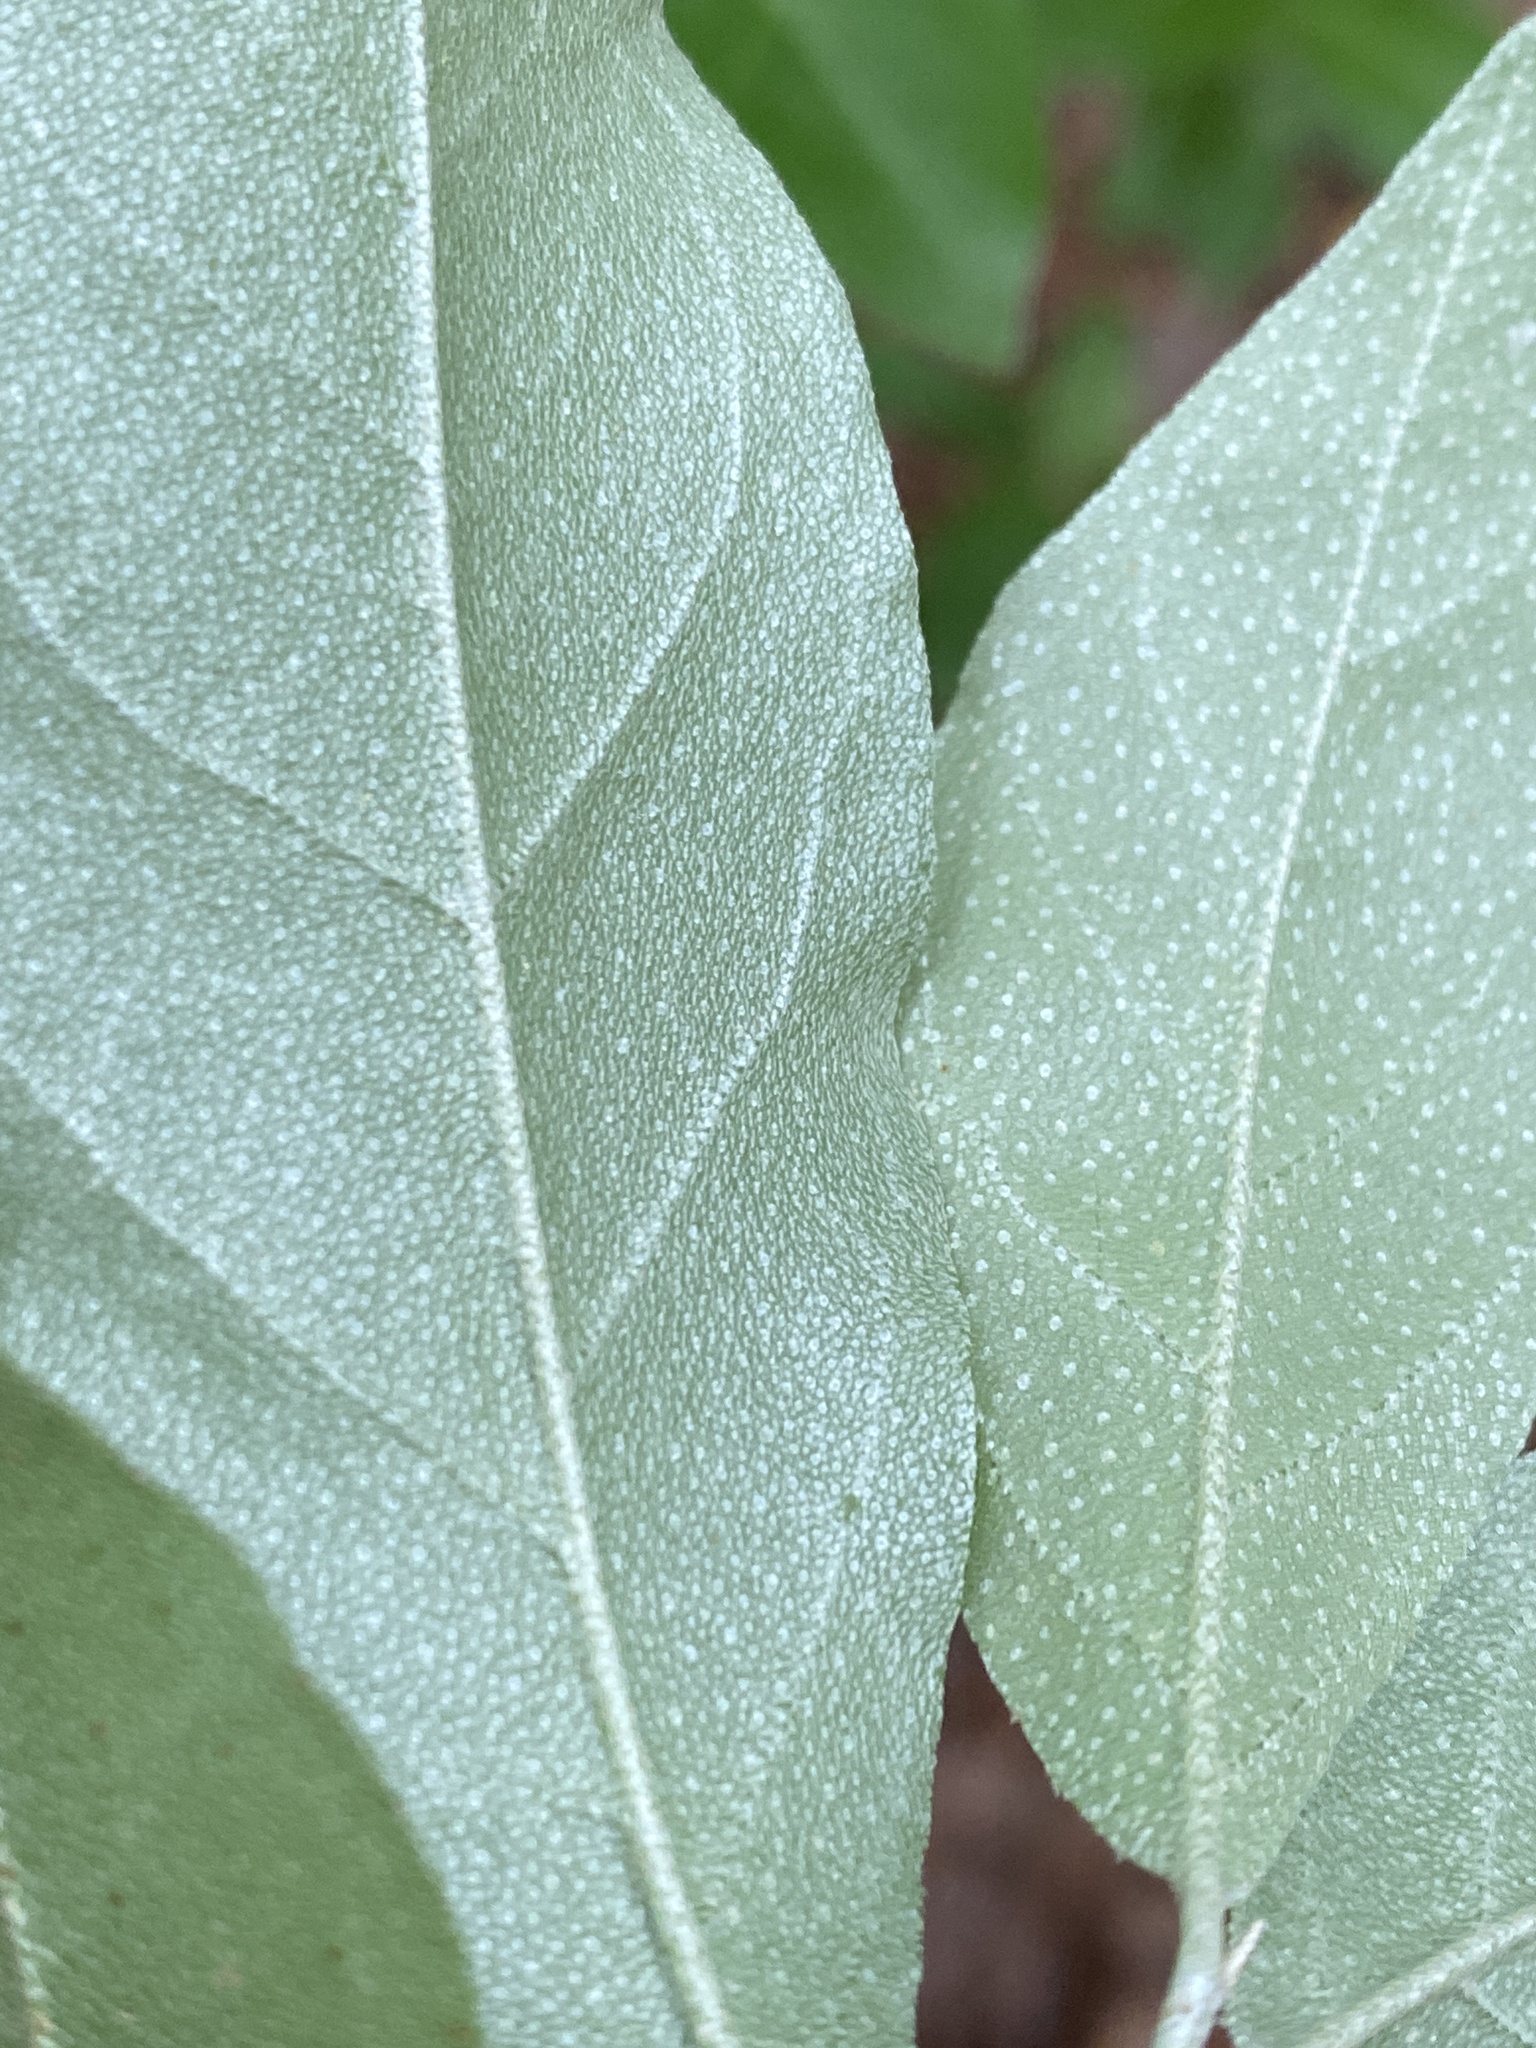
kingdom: Plantae
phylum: Tracheophyta
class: Magnoliopsida
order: Rosales
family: Elaeagnaceae
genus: Elaeagnus
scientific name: Elaeagnus umbellata
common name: Autumn olive
